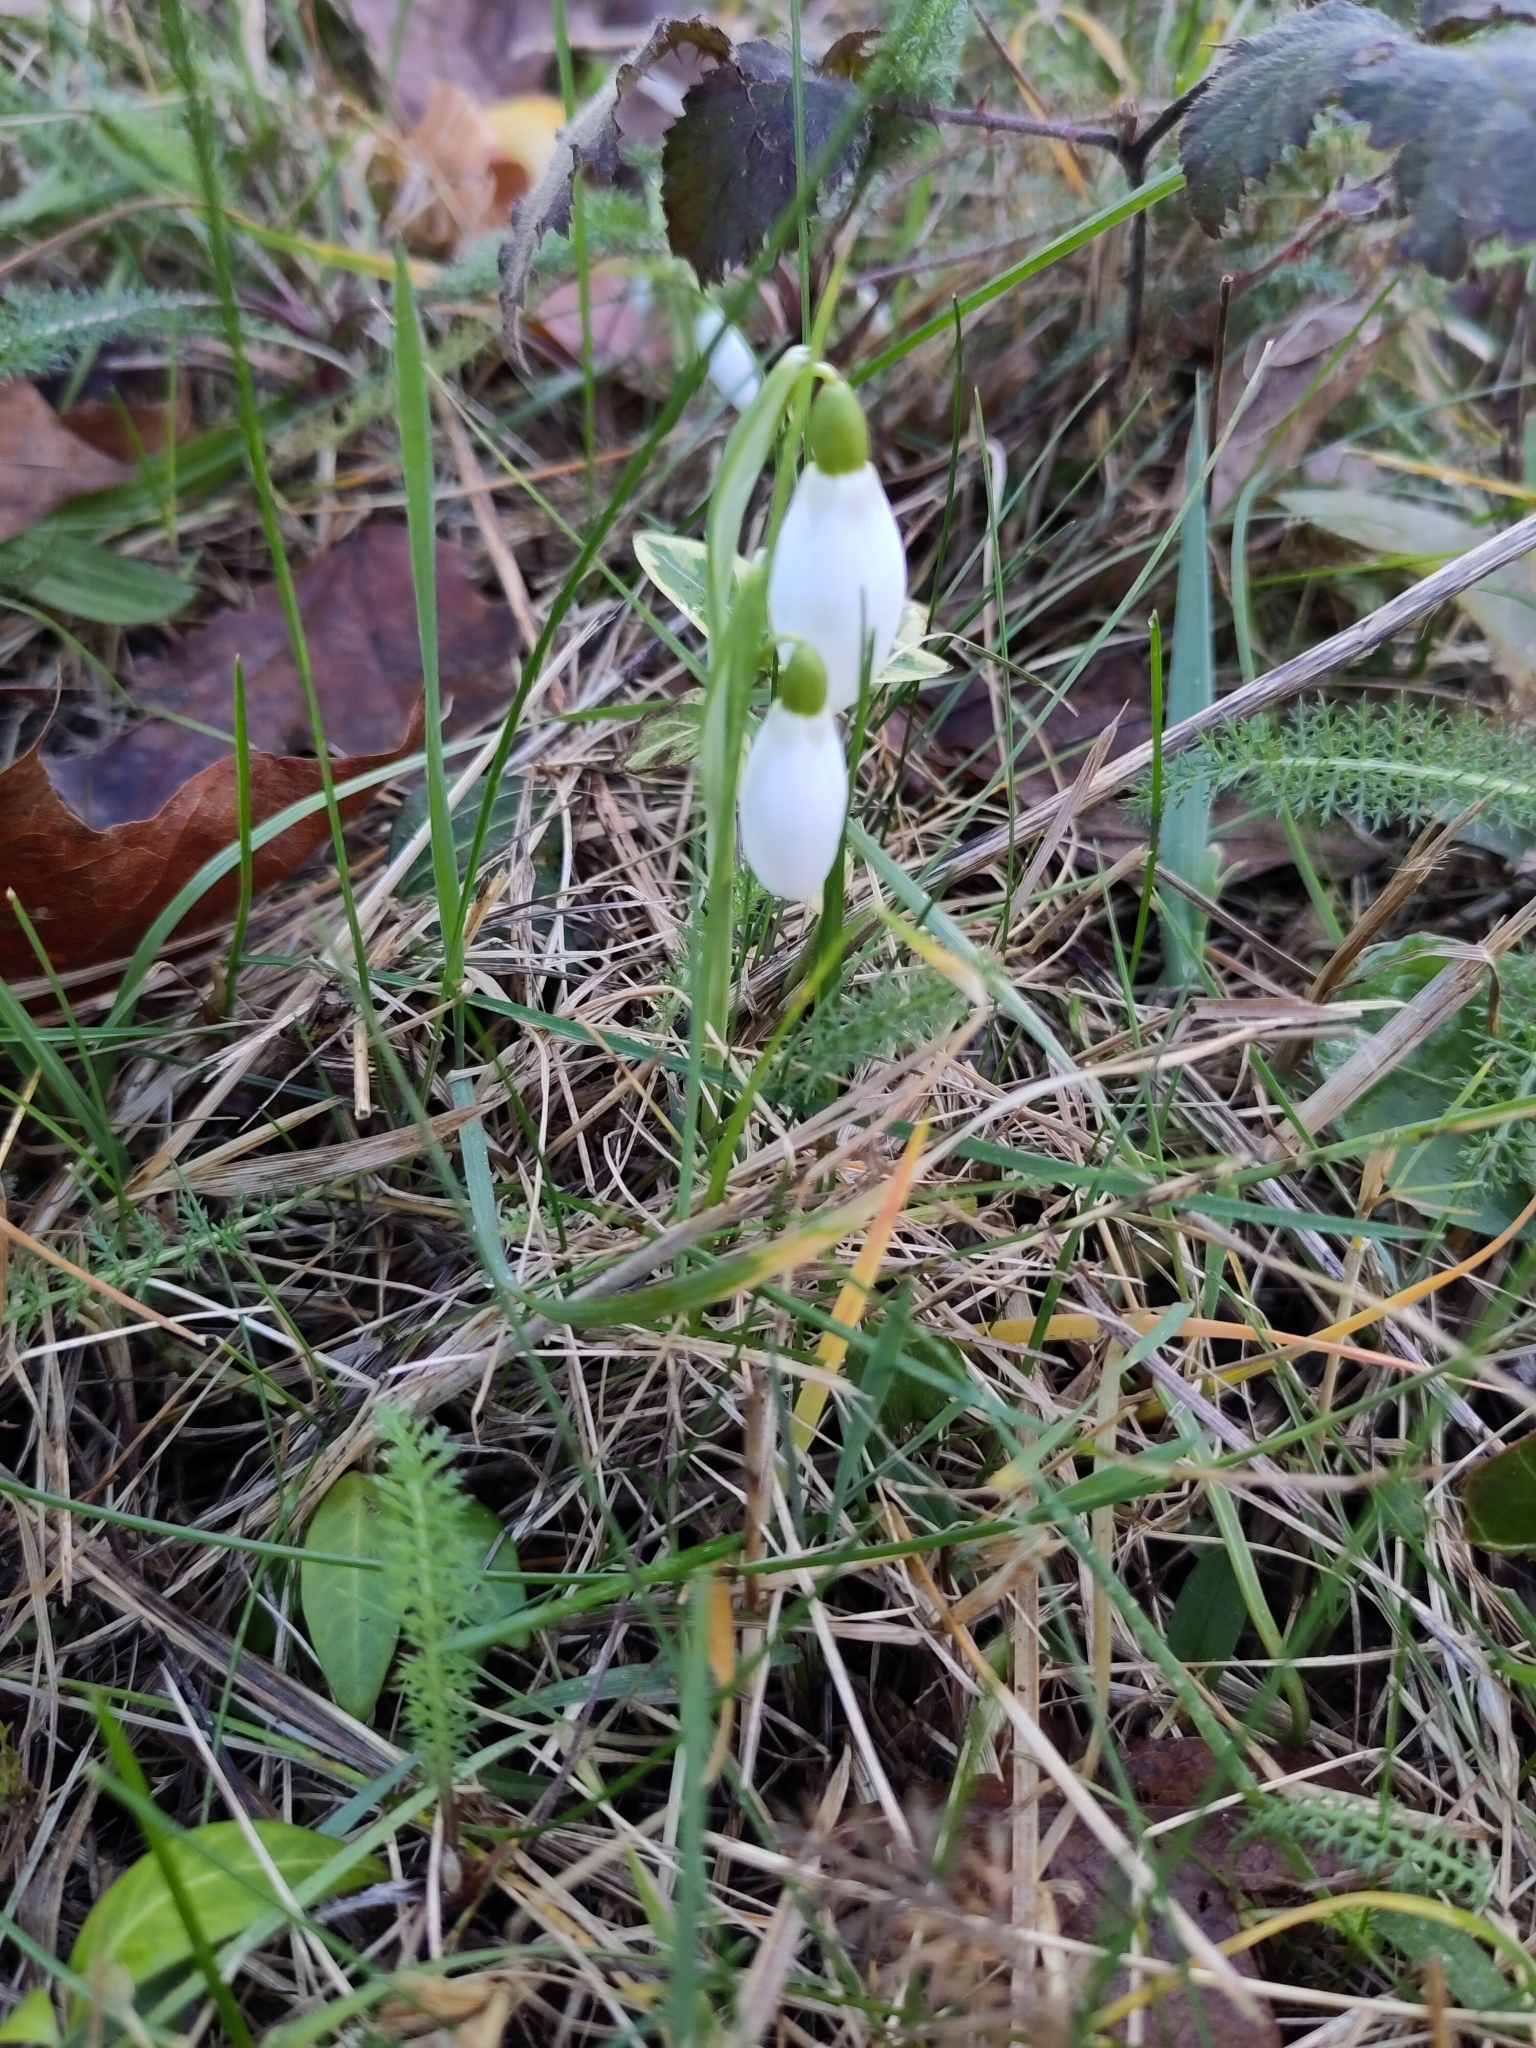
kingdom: Plantae
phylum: Tracheophyta
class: Liliopsida
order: Asparagales
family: Amaryllidaceae
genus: Galanthus
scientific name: Galanthus nivalis
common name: Snowdrop
